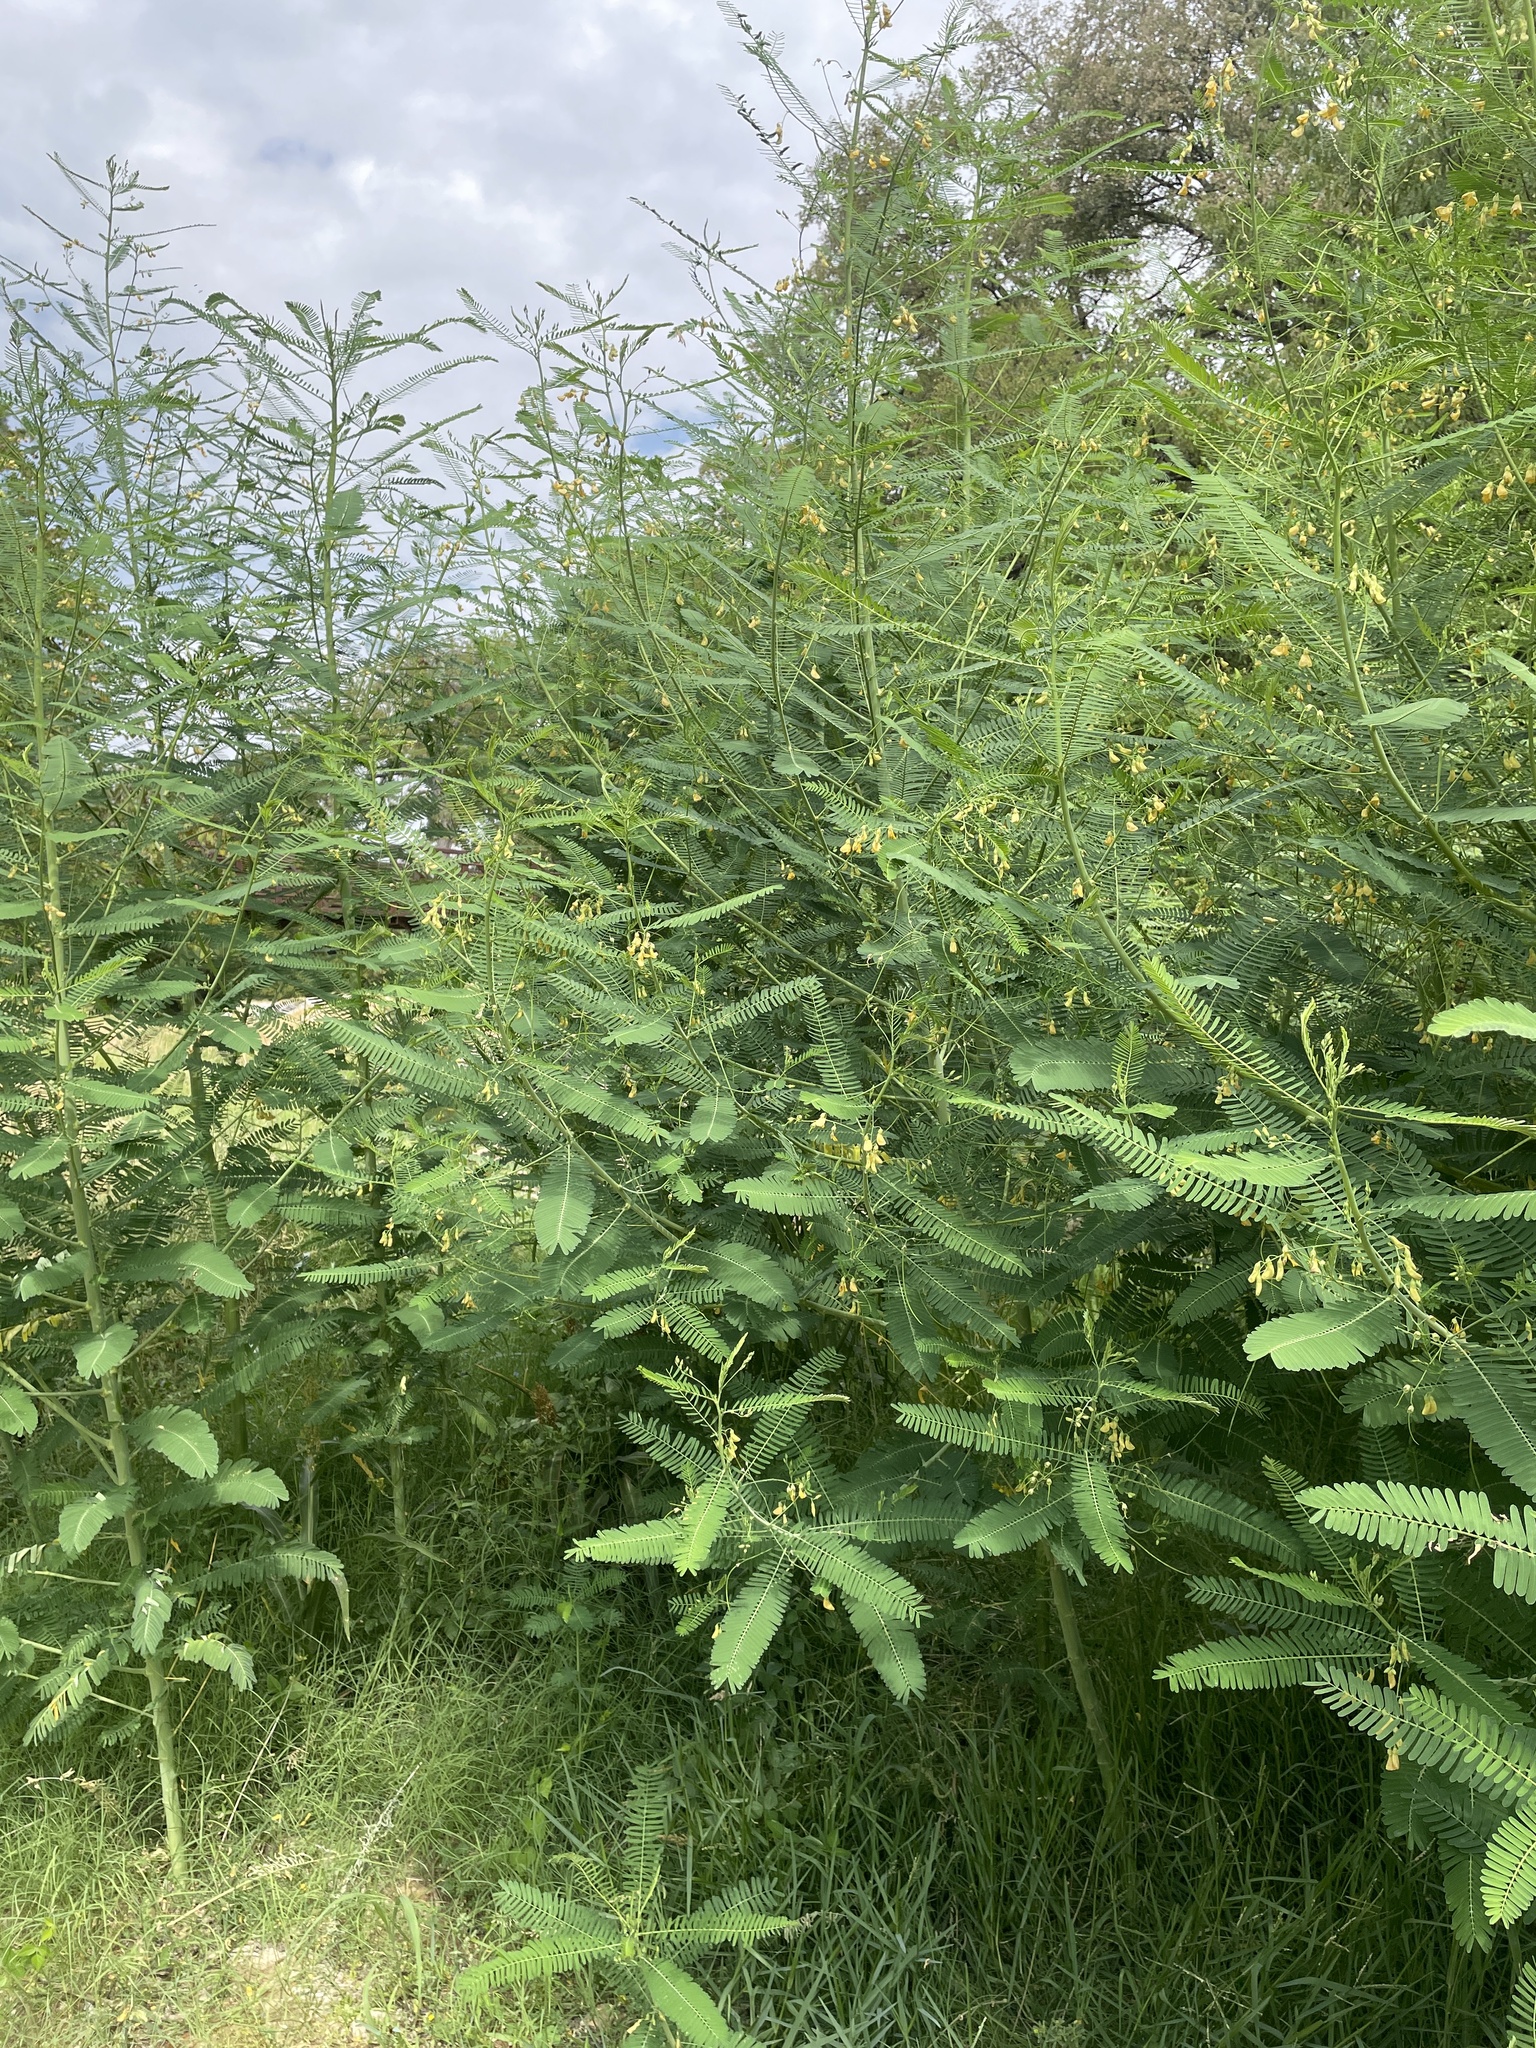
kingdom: Plantae
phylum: Tracheophyta
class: Magnoliopsida
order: Fabales
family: Fabaceae
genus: Sesbania
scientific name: Sesbania herbacea
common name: Bigpod sesbania
